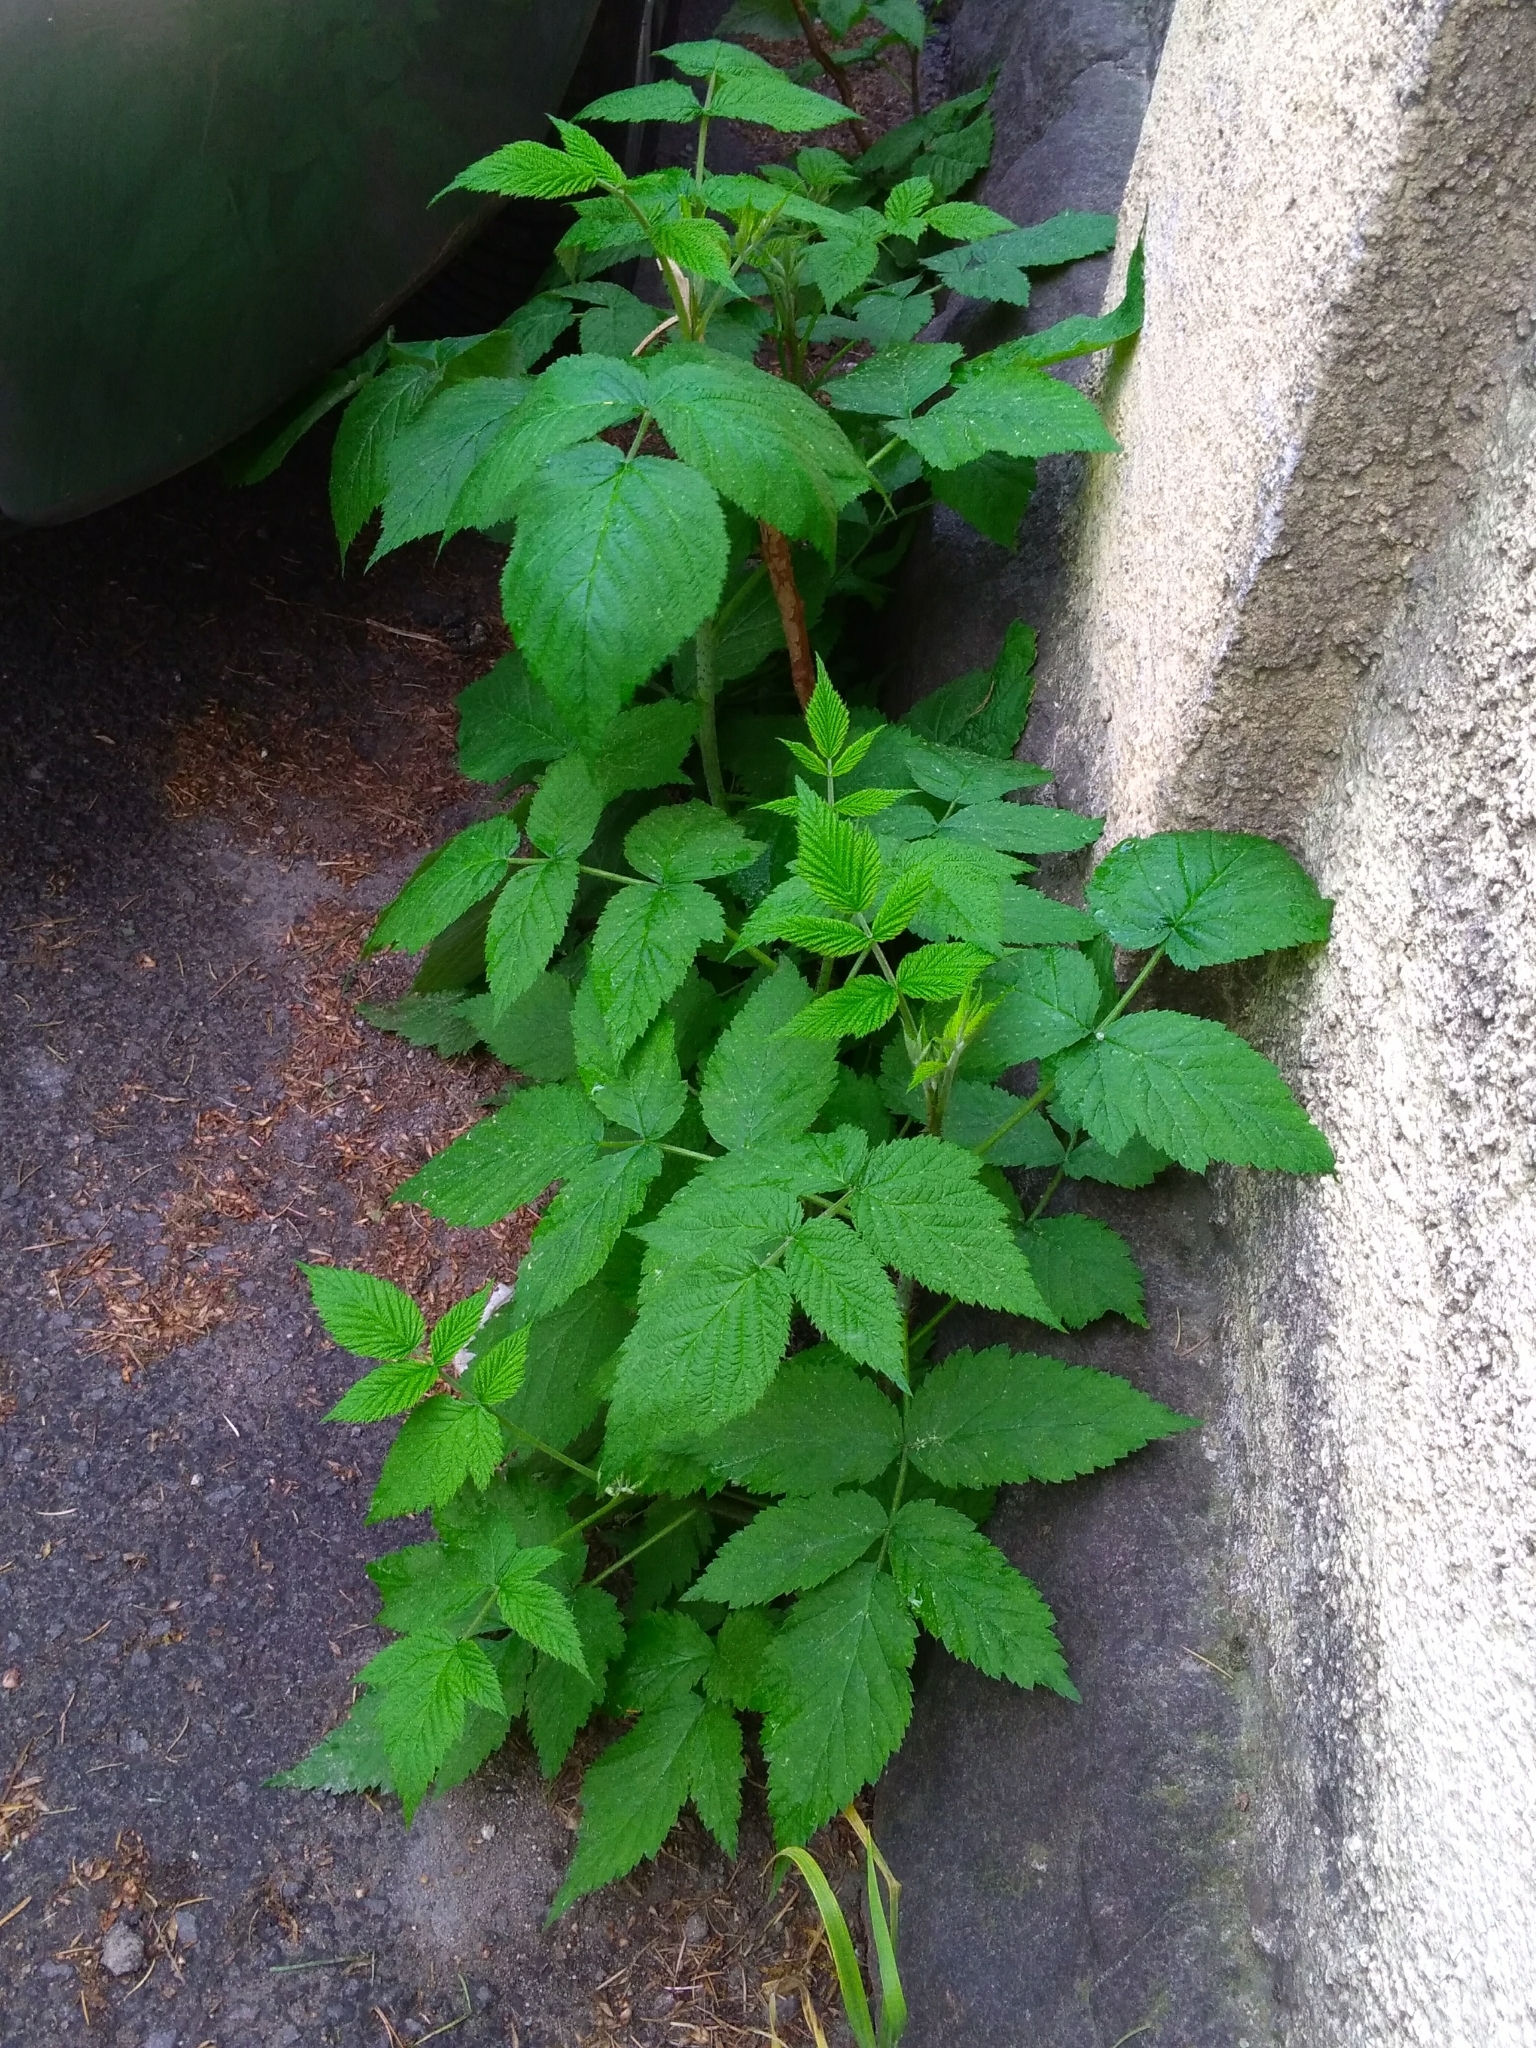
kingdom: Plantae
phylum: Tracheophyta
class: Magnoliopsida
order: Rosales
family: Rosaceae
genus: Rubus
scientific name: Rubus idaeus
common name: Raspberry
